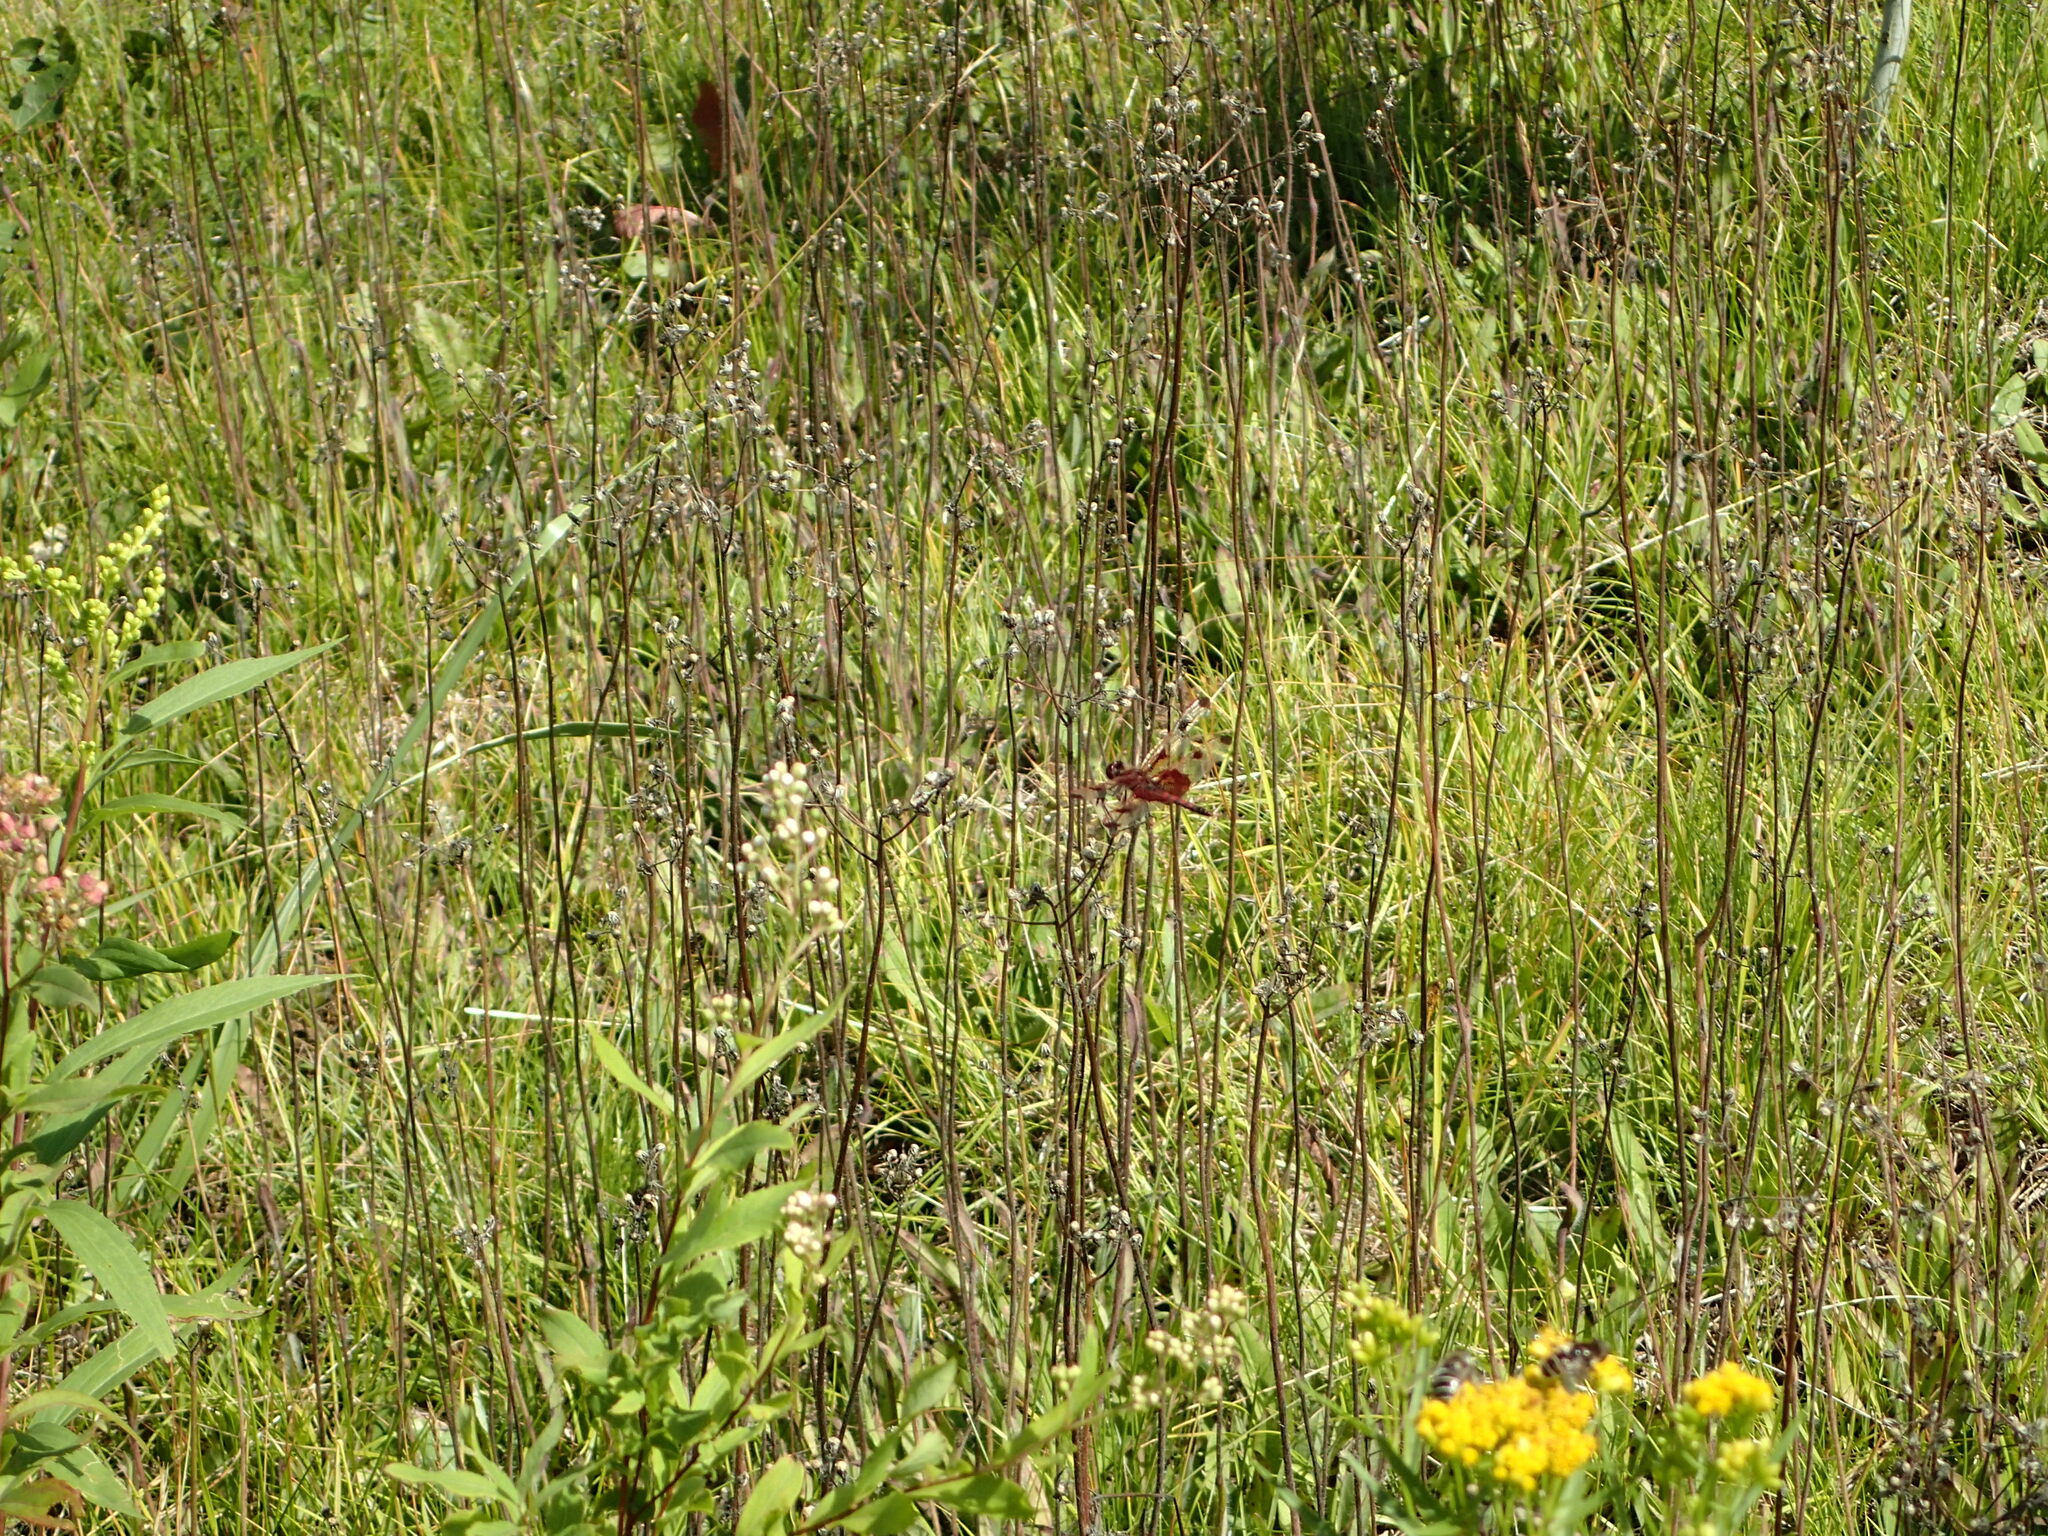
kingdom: Animalia
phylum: Arthropoda
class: Insecta
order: Odonata
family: Libellulidae
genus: Celithemis
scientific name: Celithemis elisa
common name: Calico pennant
